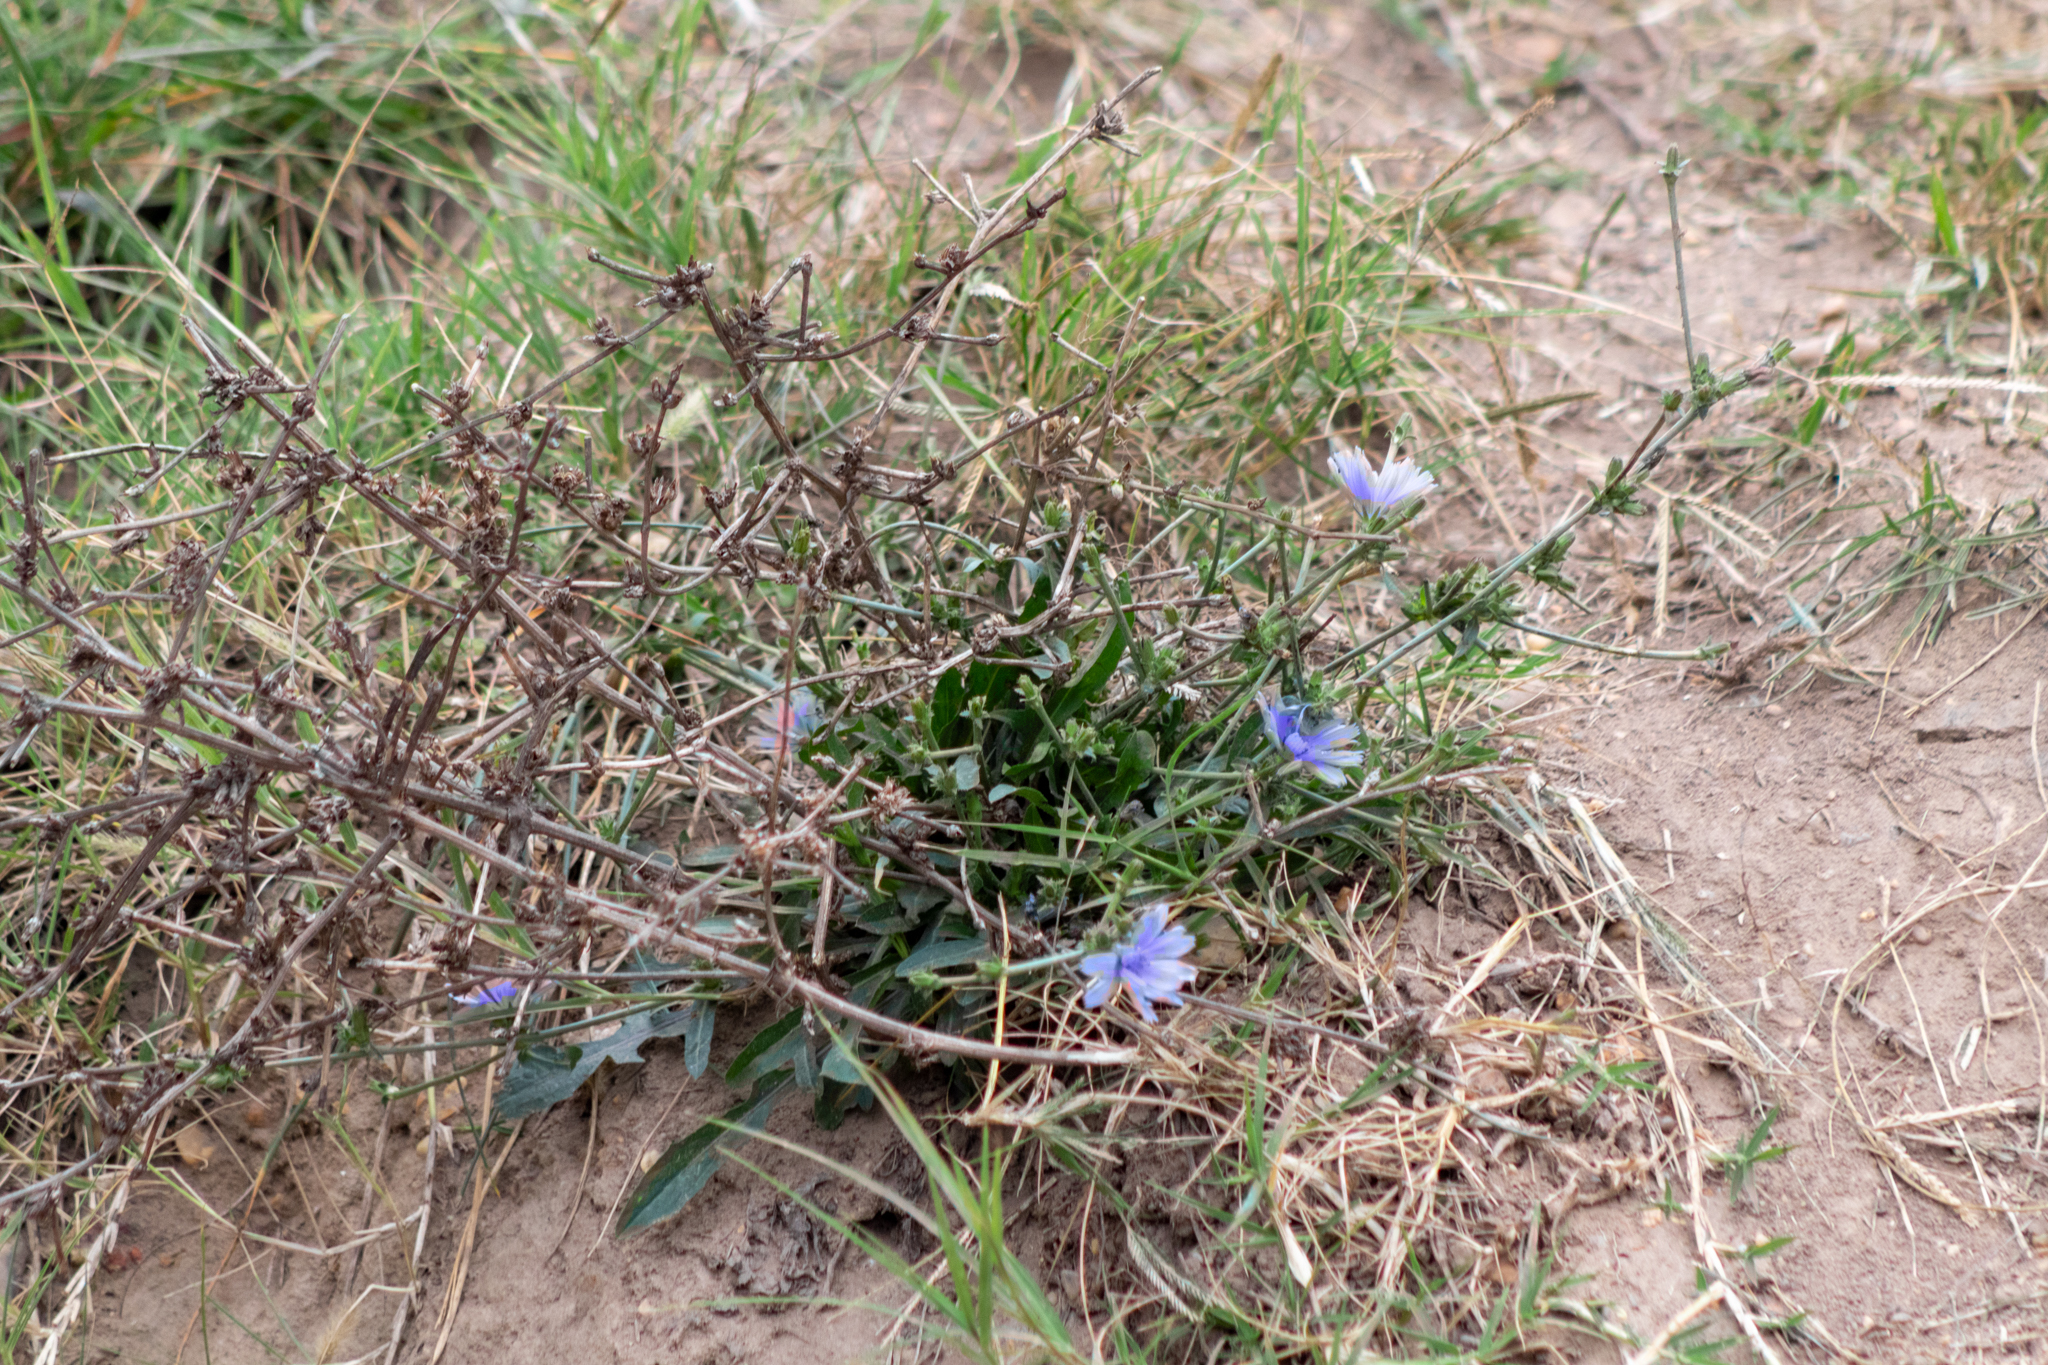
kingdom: Plantae
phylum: Tracheophyta
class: Magnoliopsida
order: Asterales
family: Asteraceae
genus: Cichorium
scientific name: Cichorium intybus
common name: Chicory
